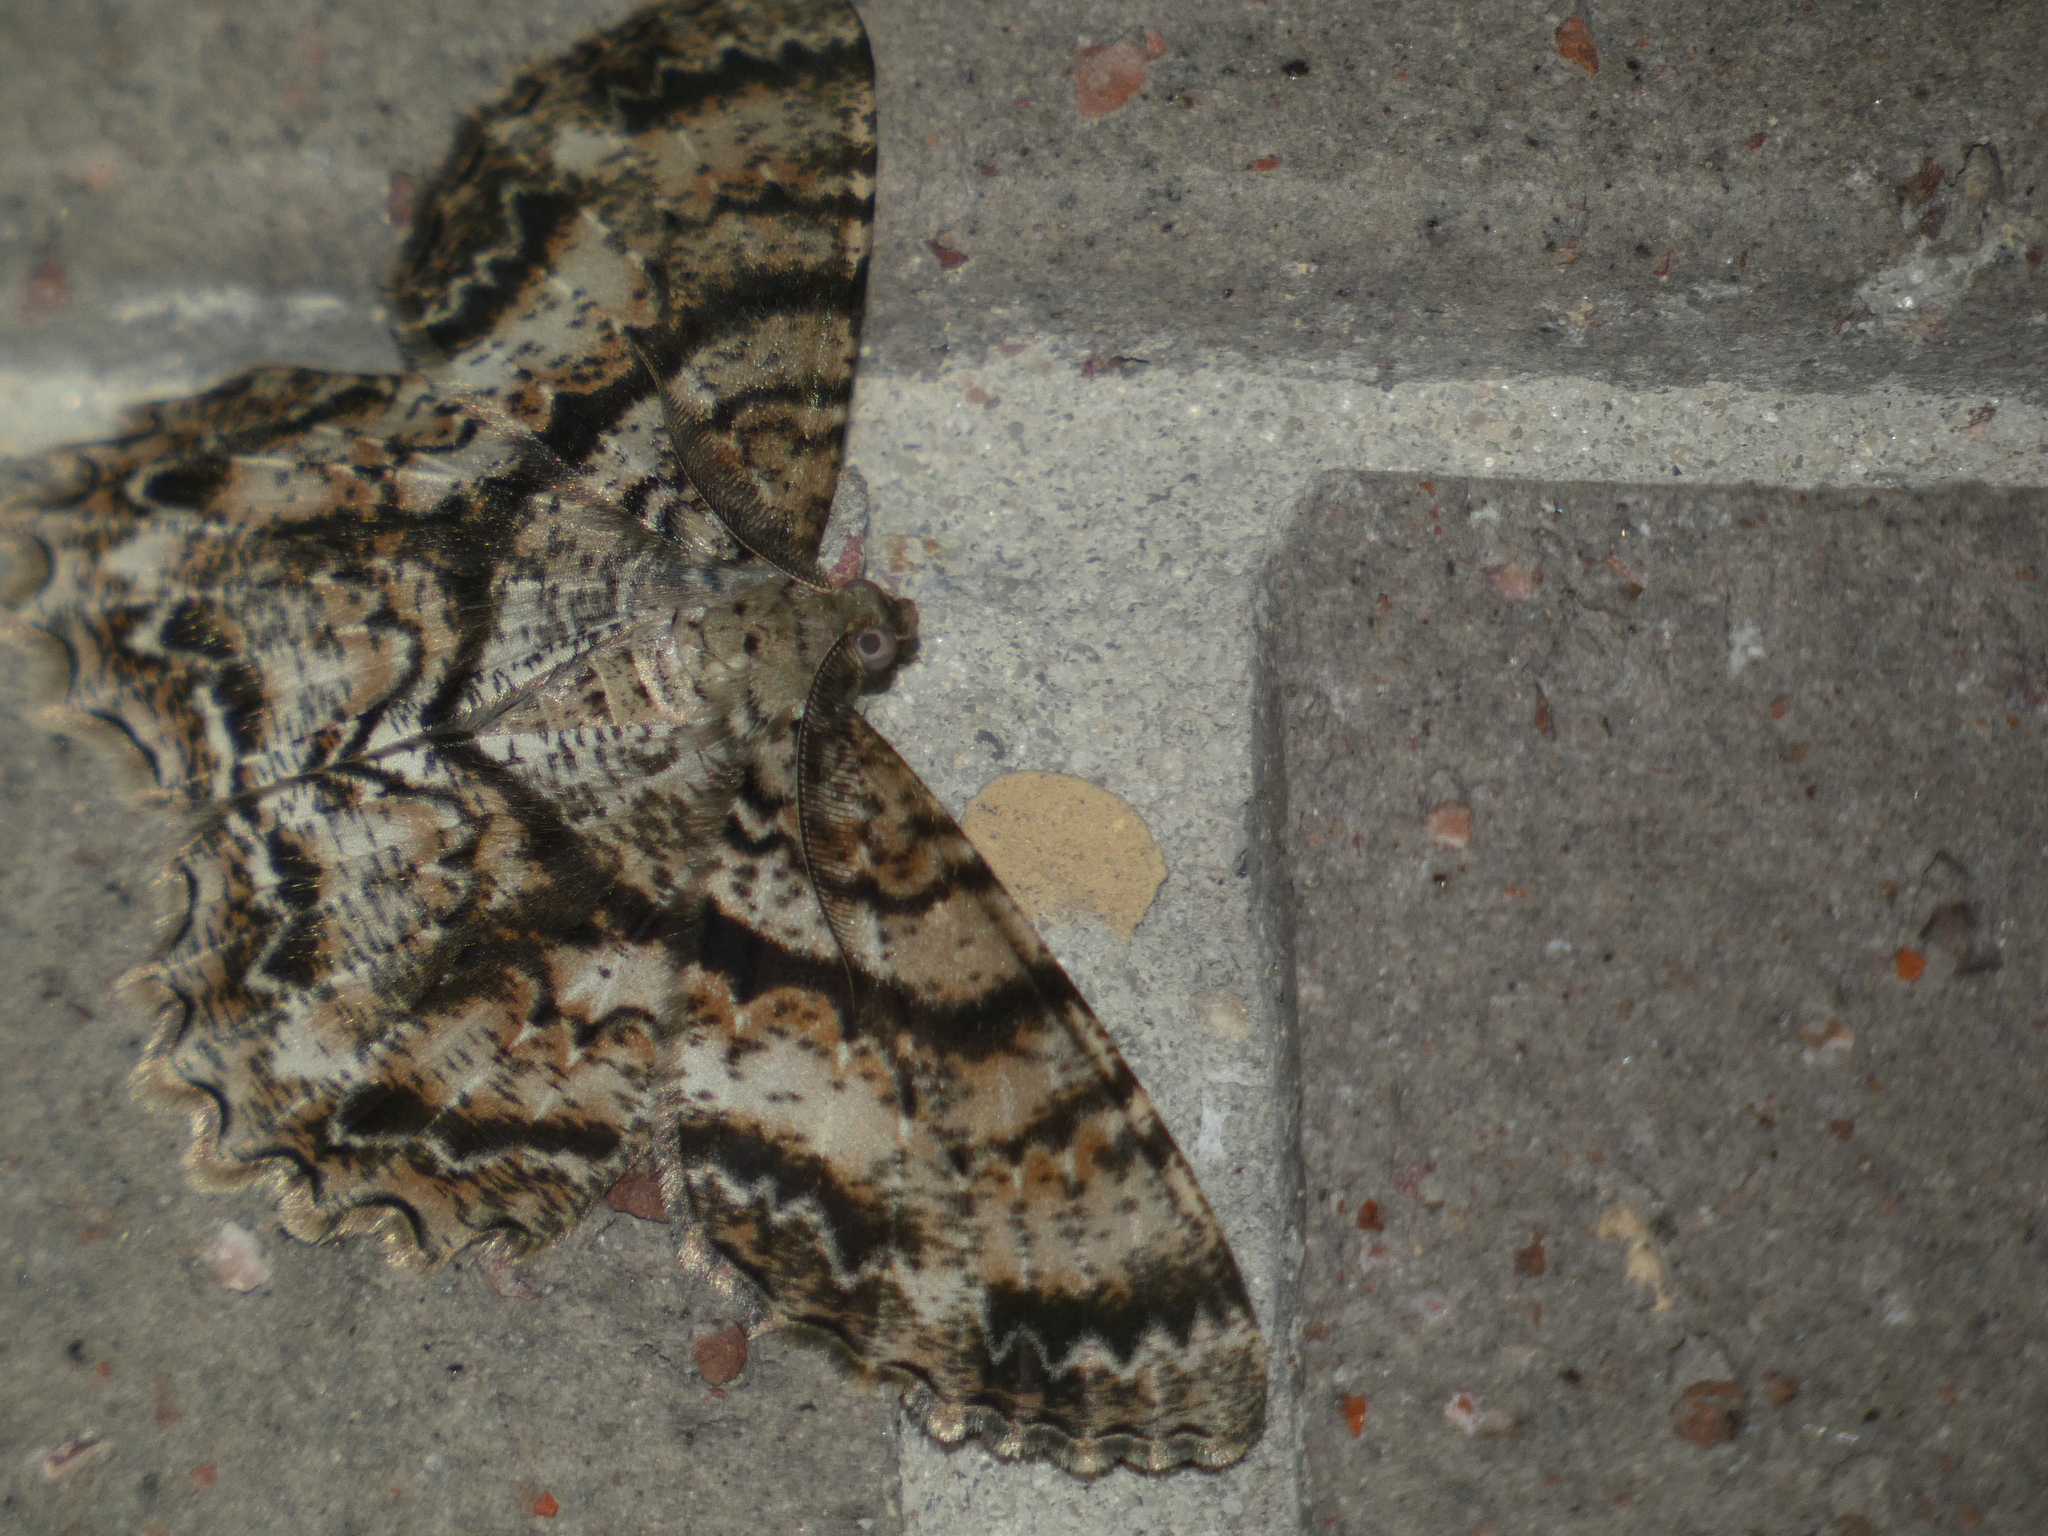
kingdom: Animalia
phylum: Arthropoda
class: Insecta
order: Lepidoptera
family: Geometridae
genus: Epimecis
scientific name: Epimecis hortaria
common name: Tulip-tree beauty
